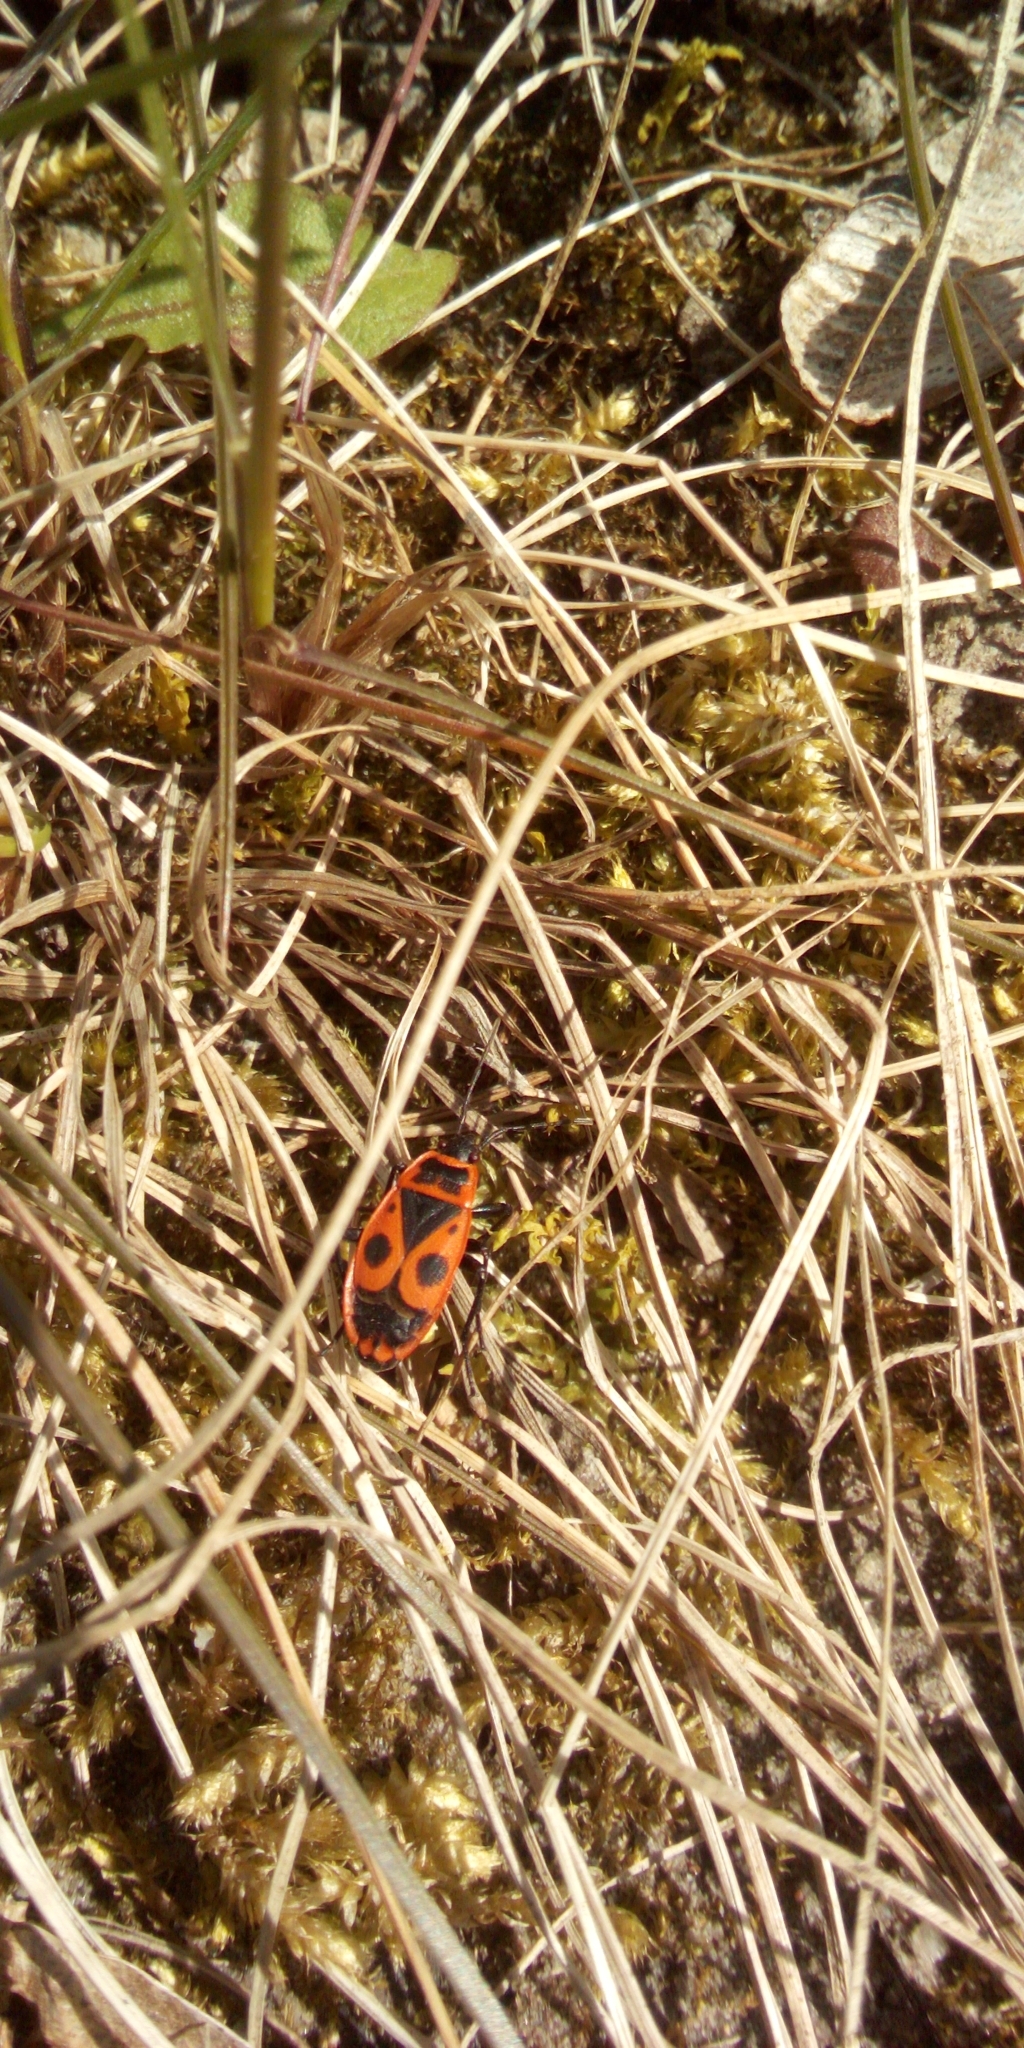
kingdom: Animalia
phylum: Arthropoda
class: Insecta
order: Hemiptera
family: Pyrrhocoridae
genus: Pyrrhocoris
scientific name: Pyrrhocoris apterus
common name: Firebug
